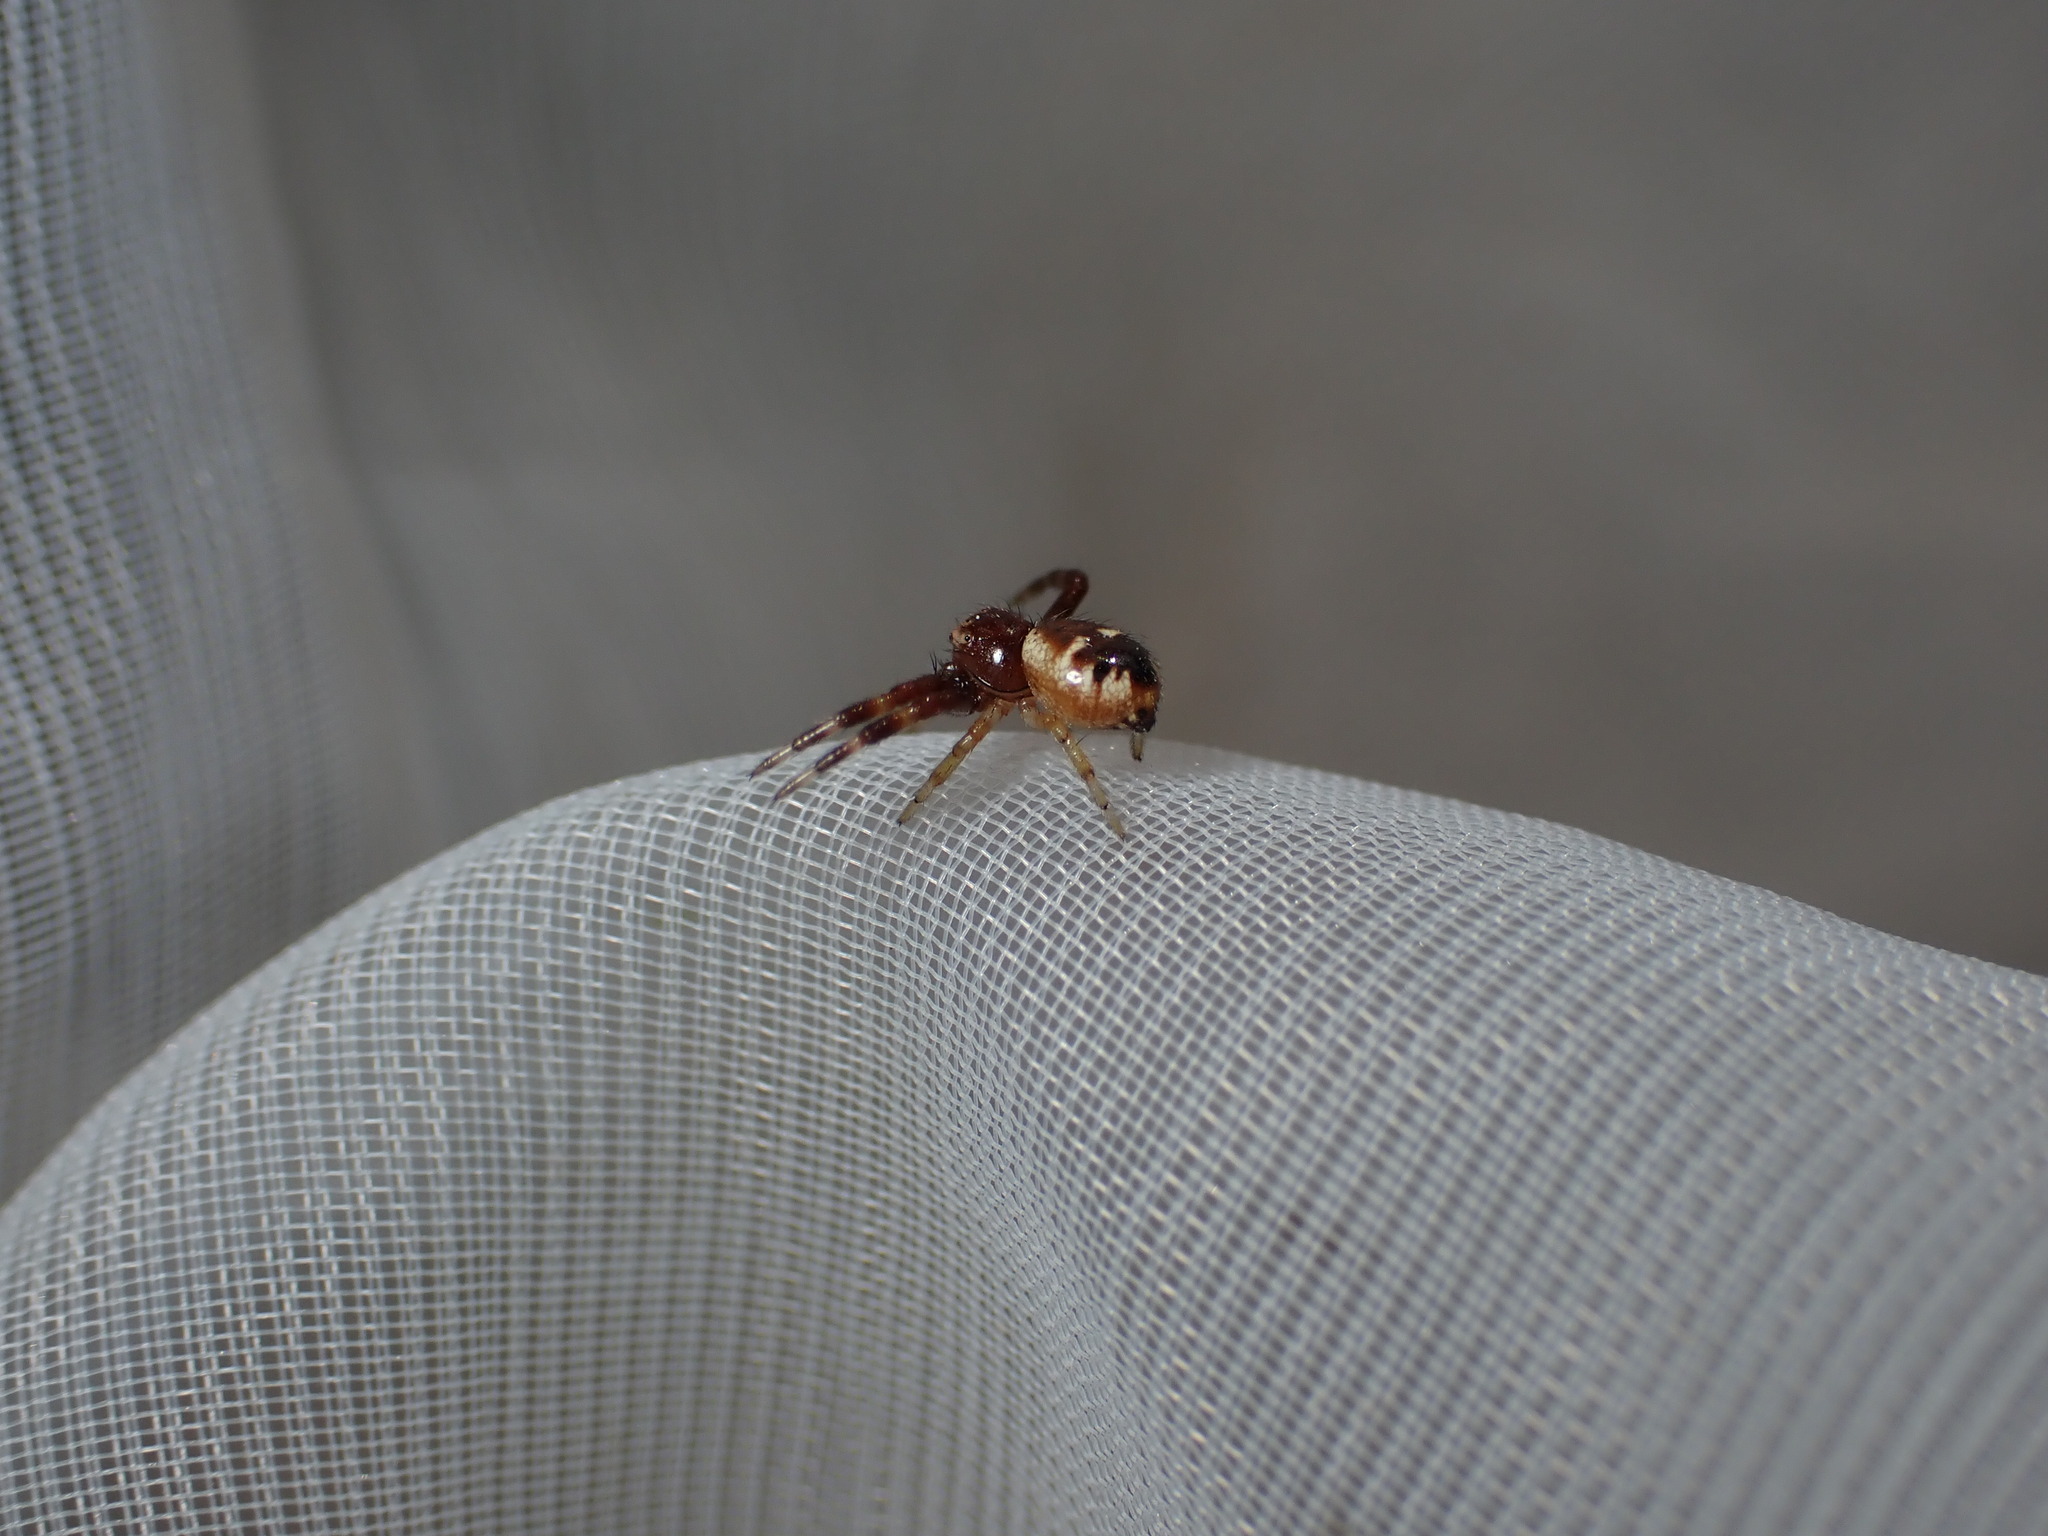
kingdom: Animalia
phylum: Arthropoda
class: Arachnida
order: Araneae
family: Thomisidae
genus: Synema
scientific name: Synema globosum
